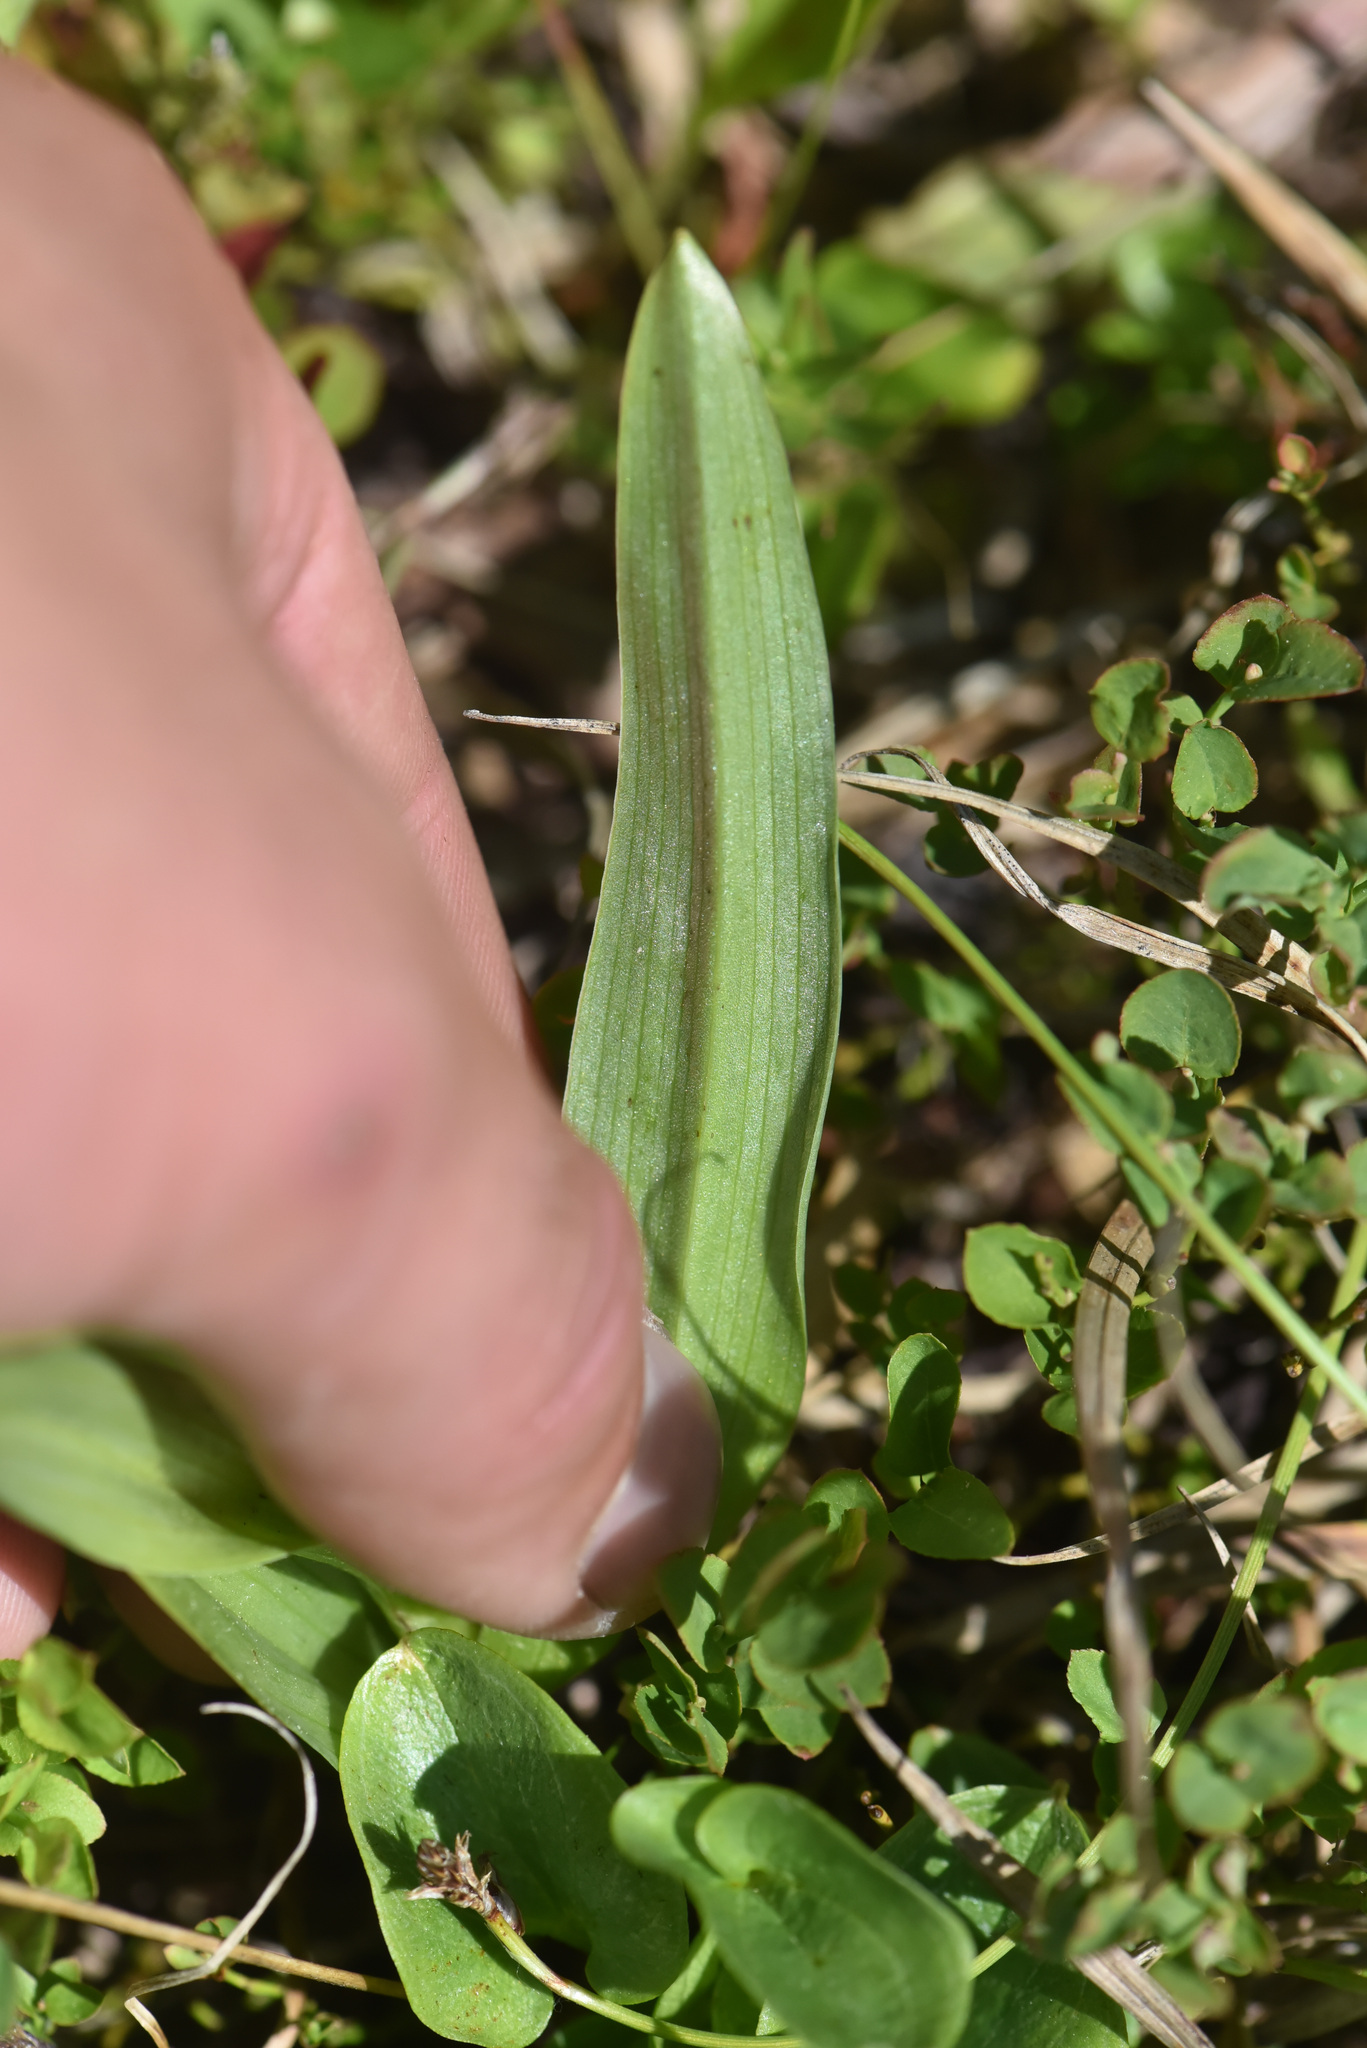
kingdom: Plantae
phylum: Tracheophyta
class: Liliopsida
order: Asparagales
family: Orchidaceae
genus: Platanthera
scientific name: Platanthera huronensis
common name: Fragrant green orchid
